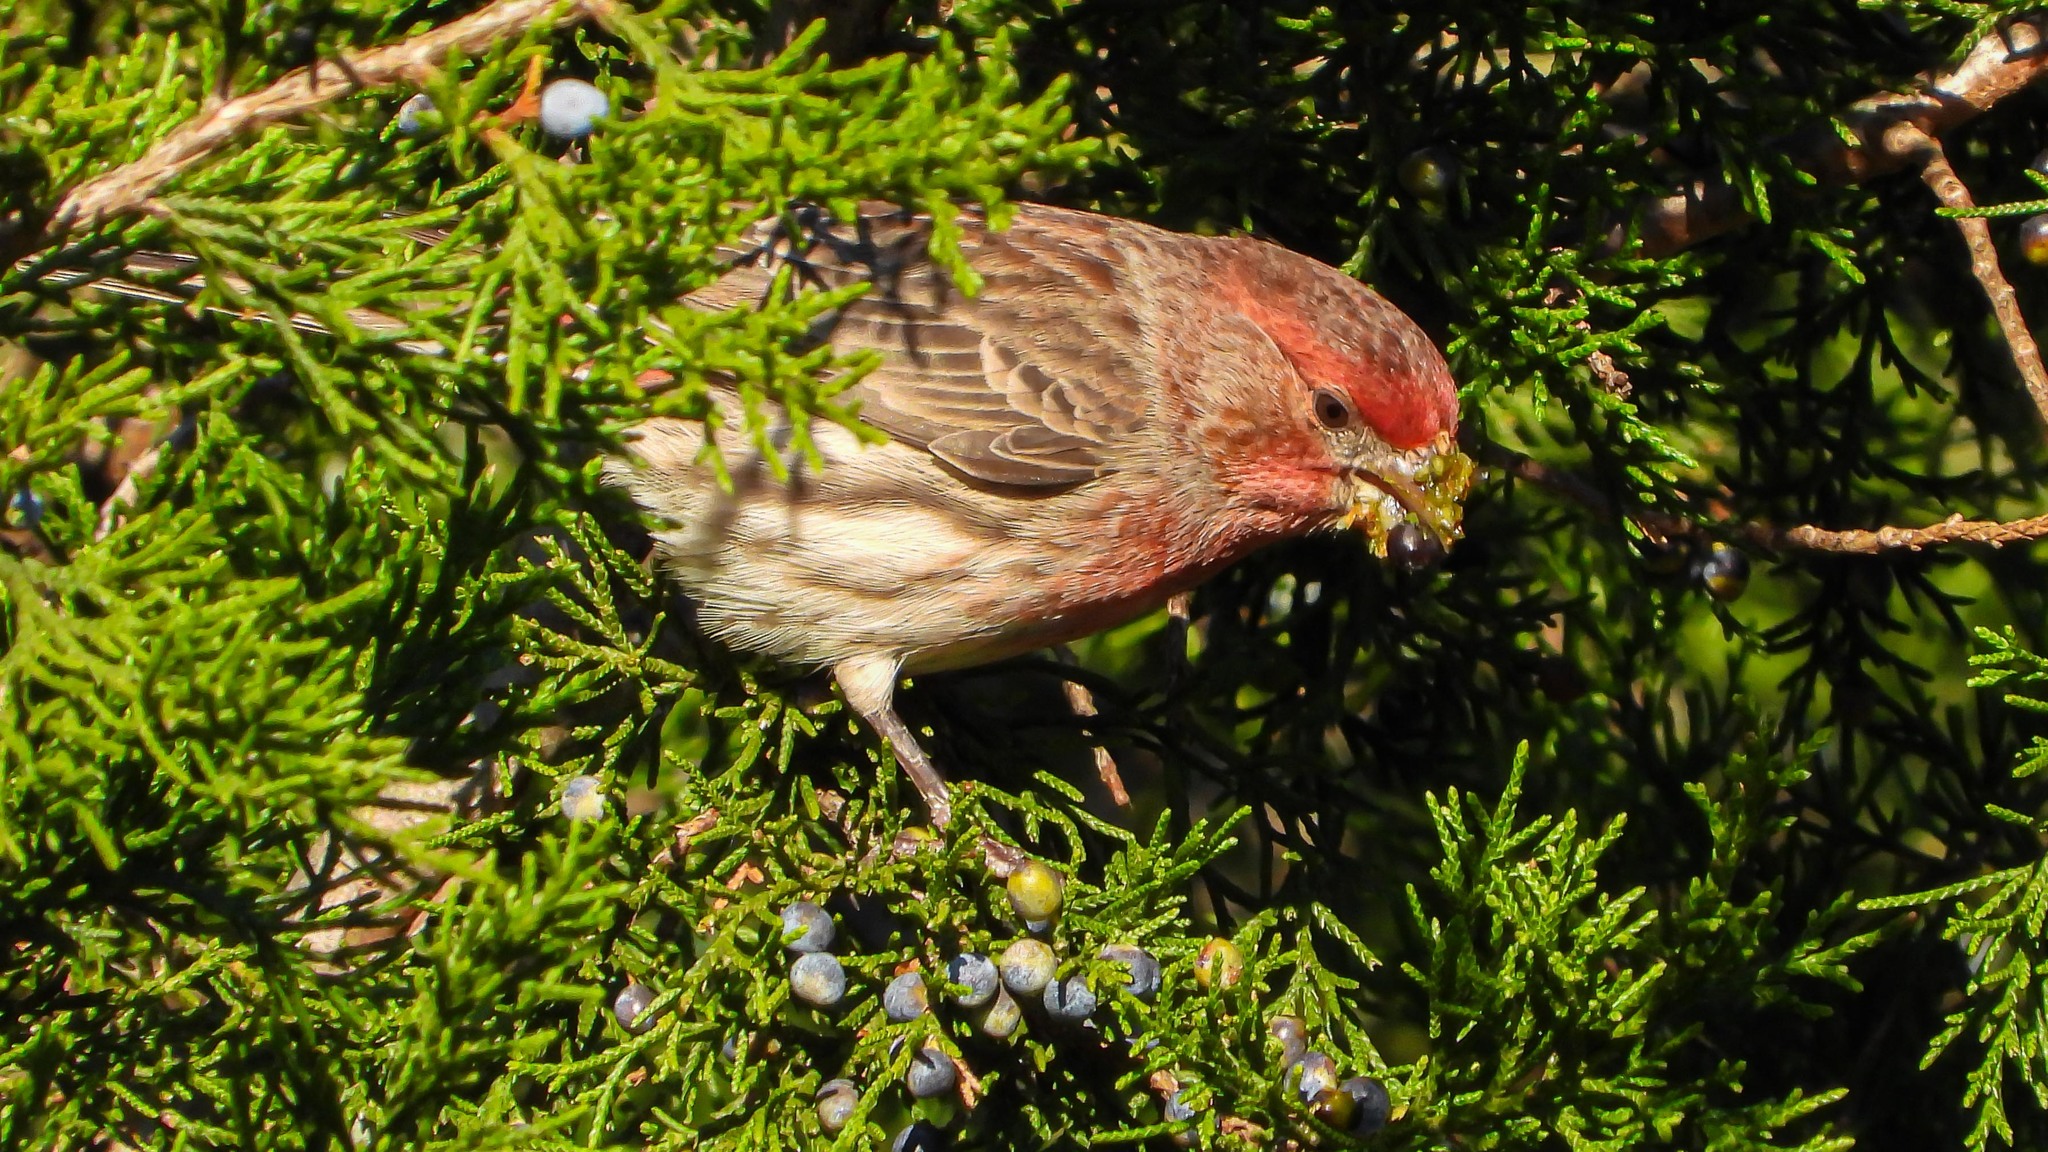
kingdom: Animalia
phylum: Chordata
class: Aves
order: Passeriformes
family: Fringillidae
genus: Haemorhous
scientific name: Haemorhous mexicanus
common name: House finch
